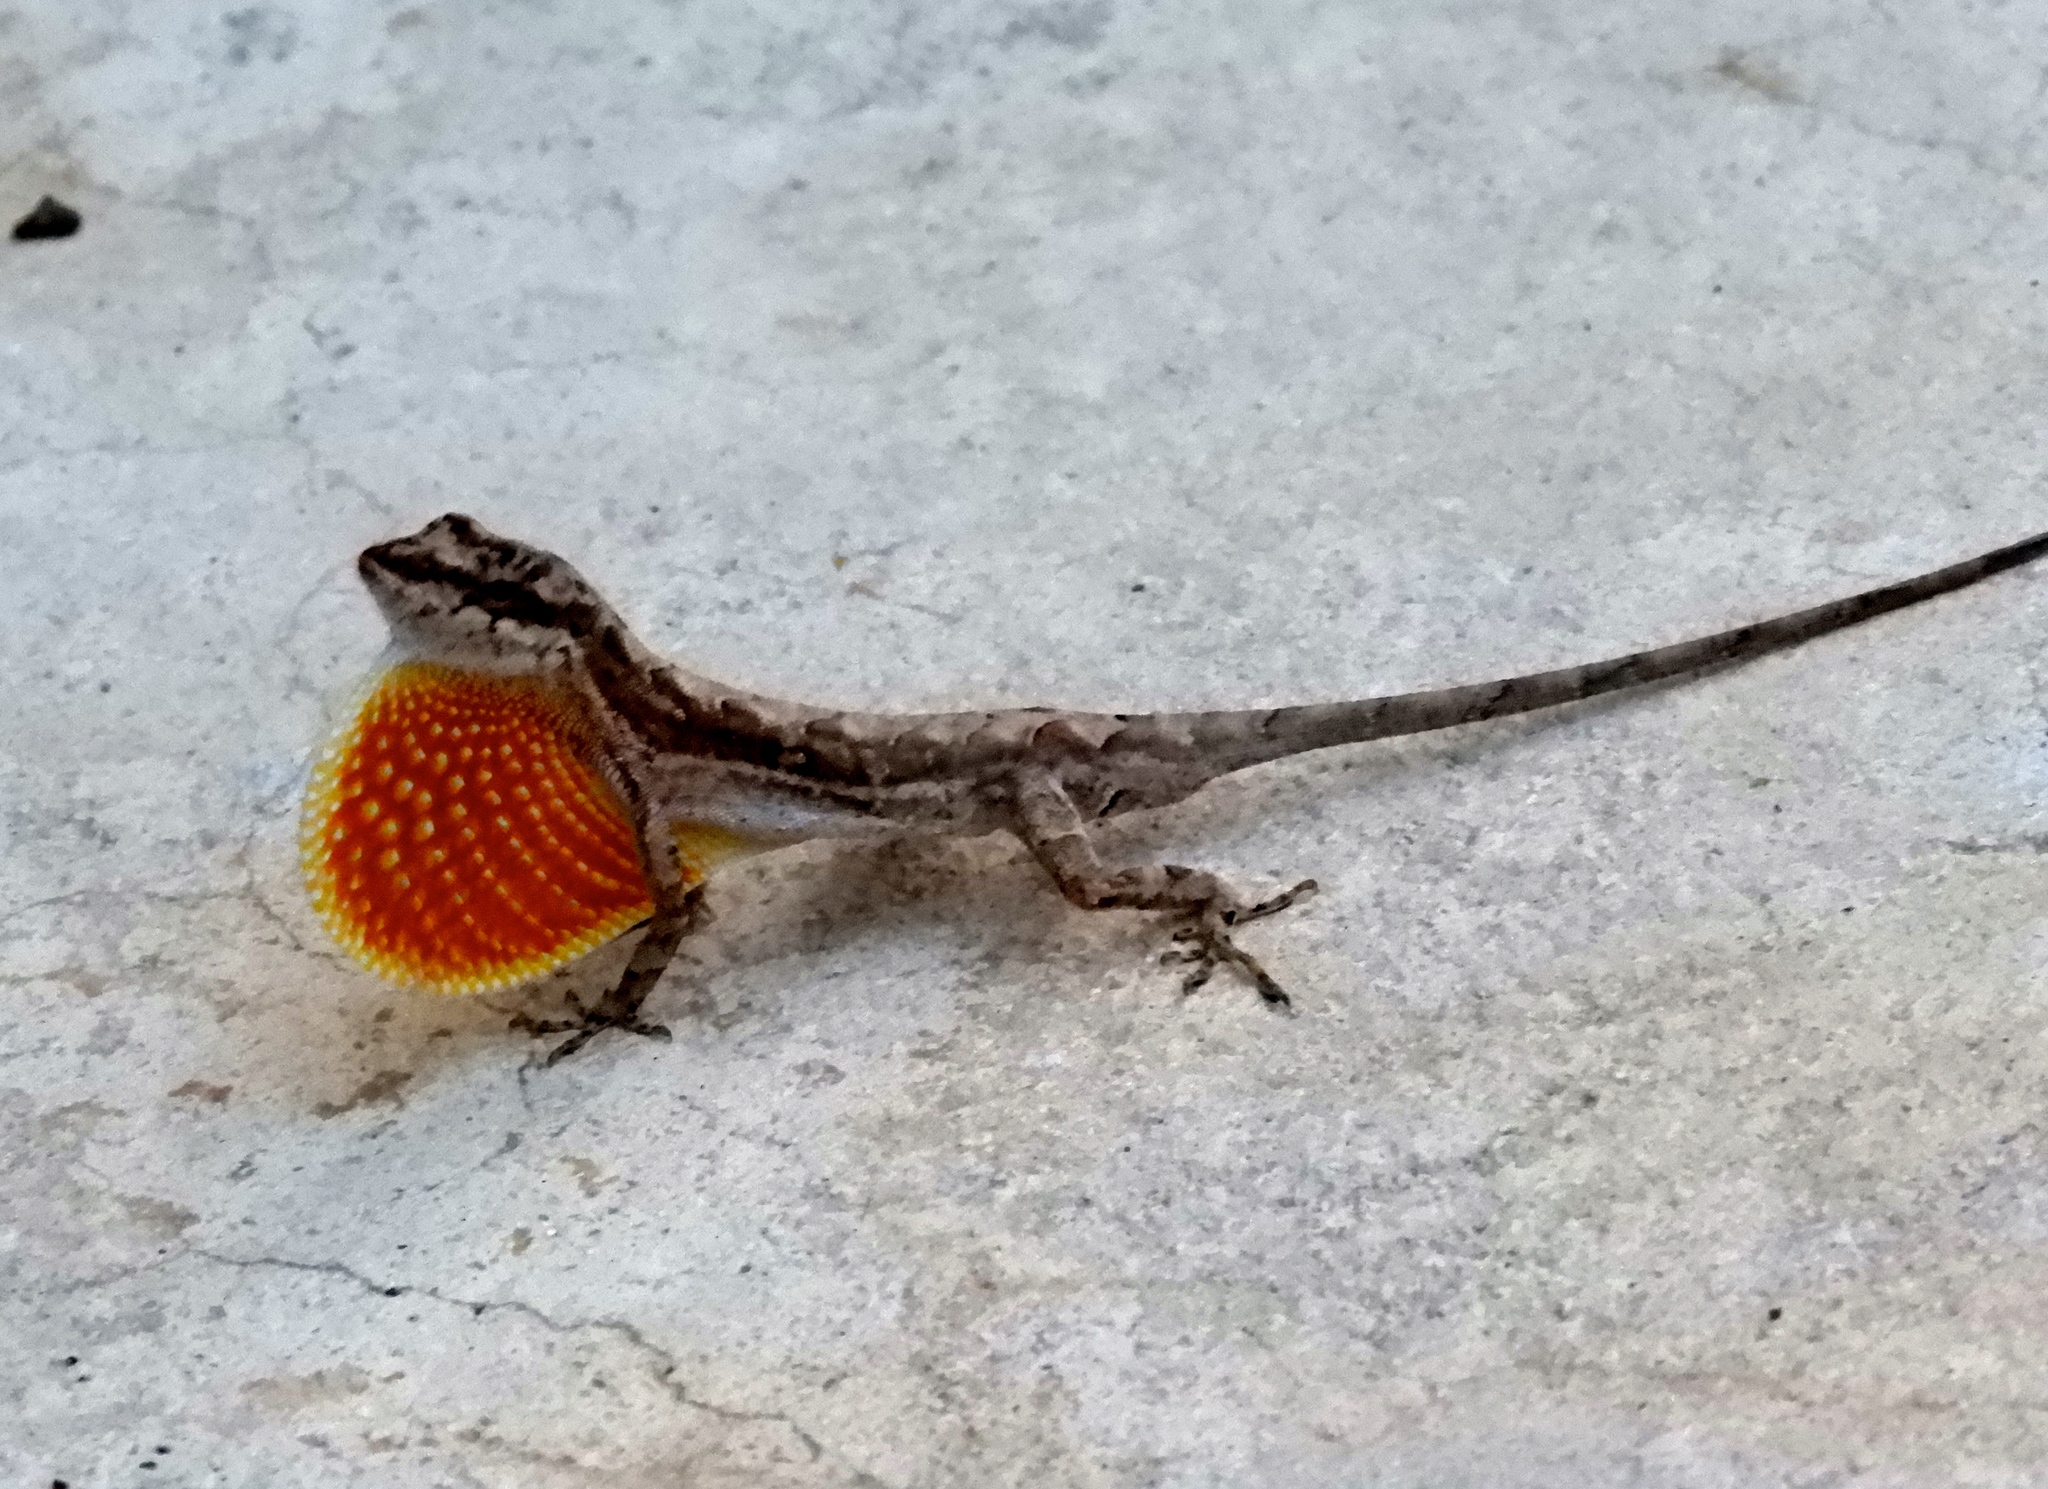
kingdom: Animalia
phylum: Chordata
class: Squamata
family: Dactyloidae
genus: Anolis
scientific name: Anolis nebulosus
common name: Clouded anole
